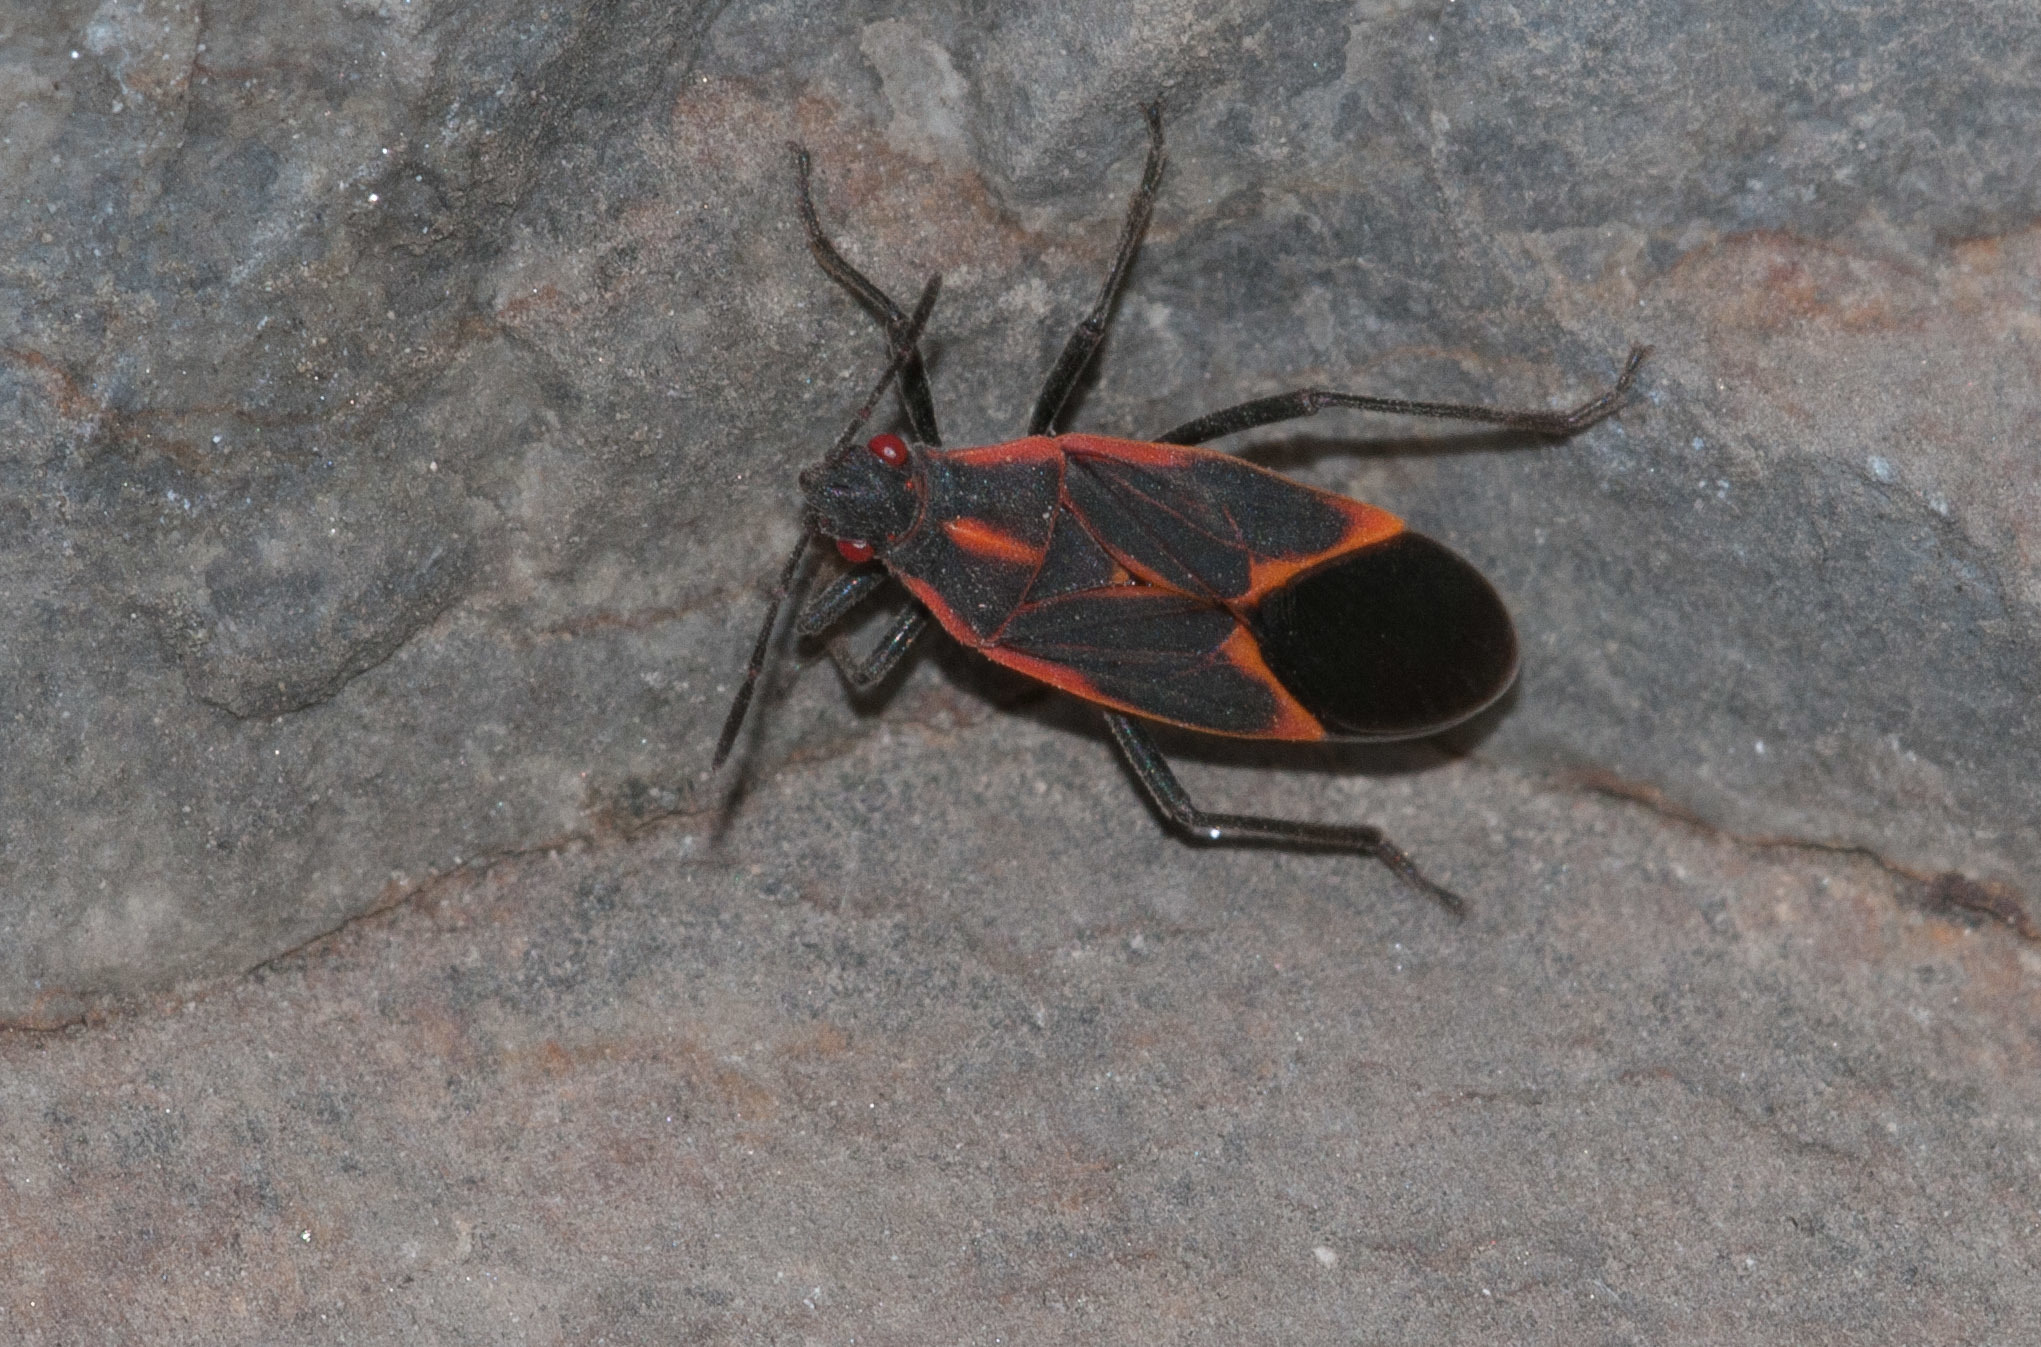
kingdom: Animalia
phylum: Arthropoda
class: Insecta
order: Hemiptera
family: Rhopalidae
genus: Boisea
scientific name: Boisea trivittata
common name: Boxelder bug
